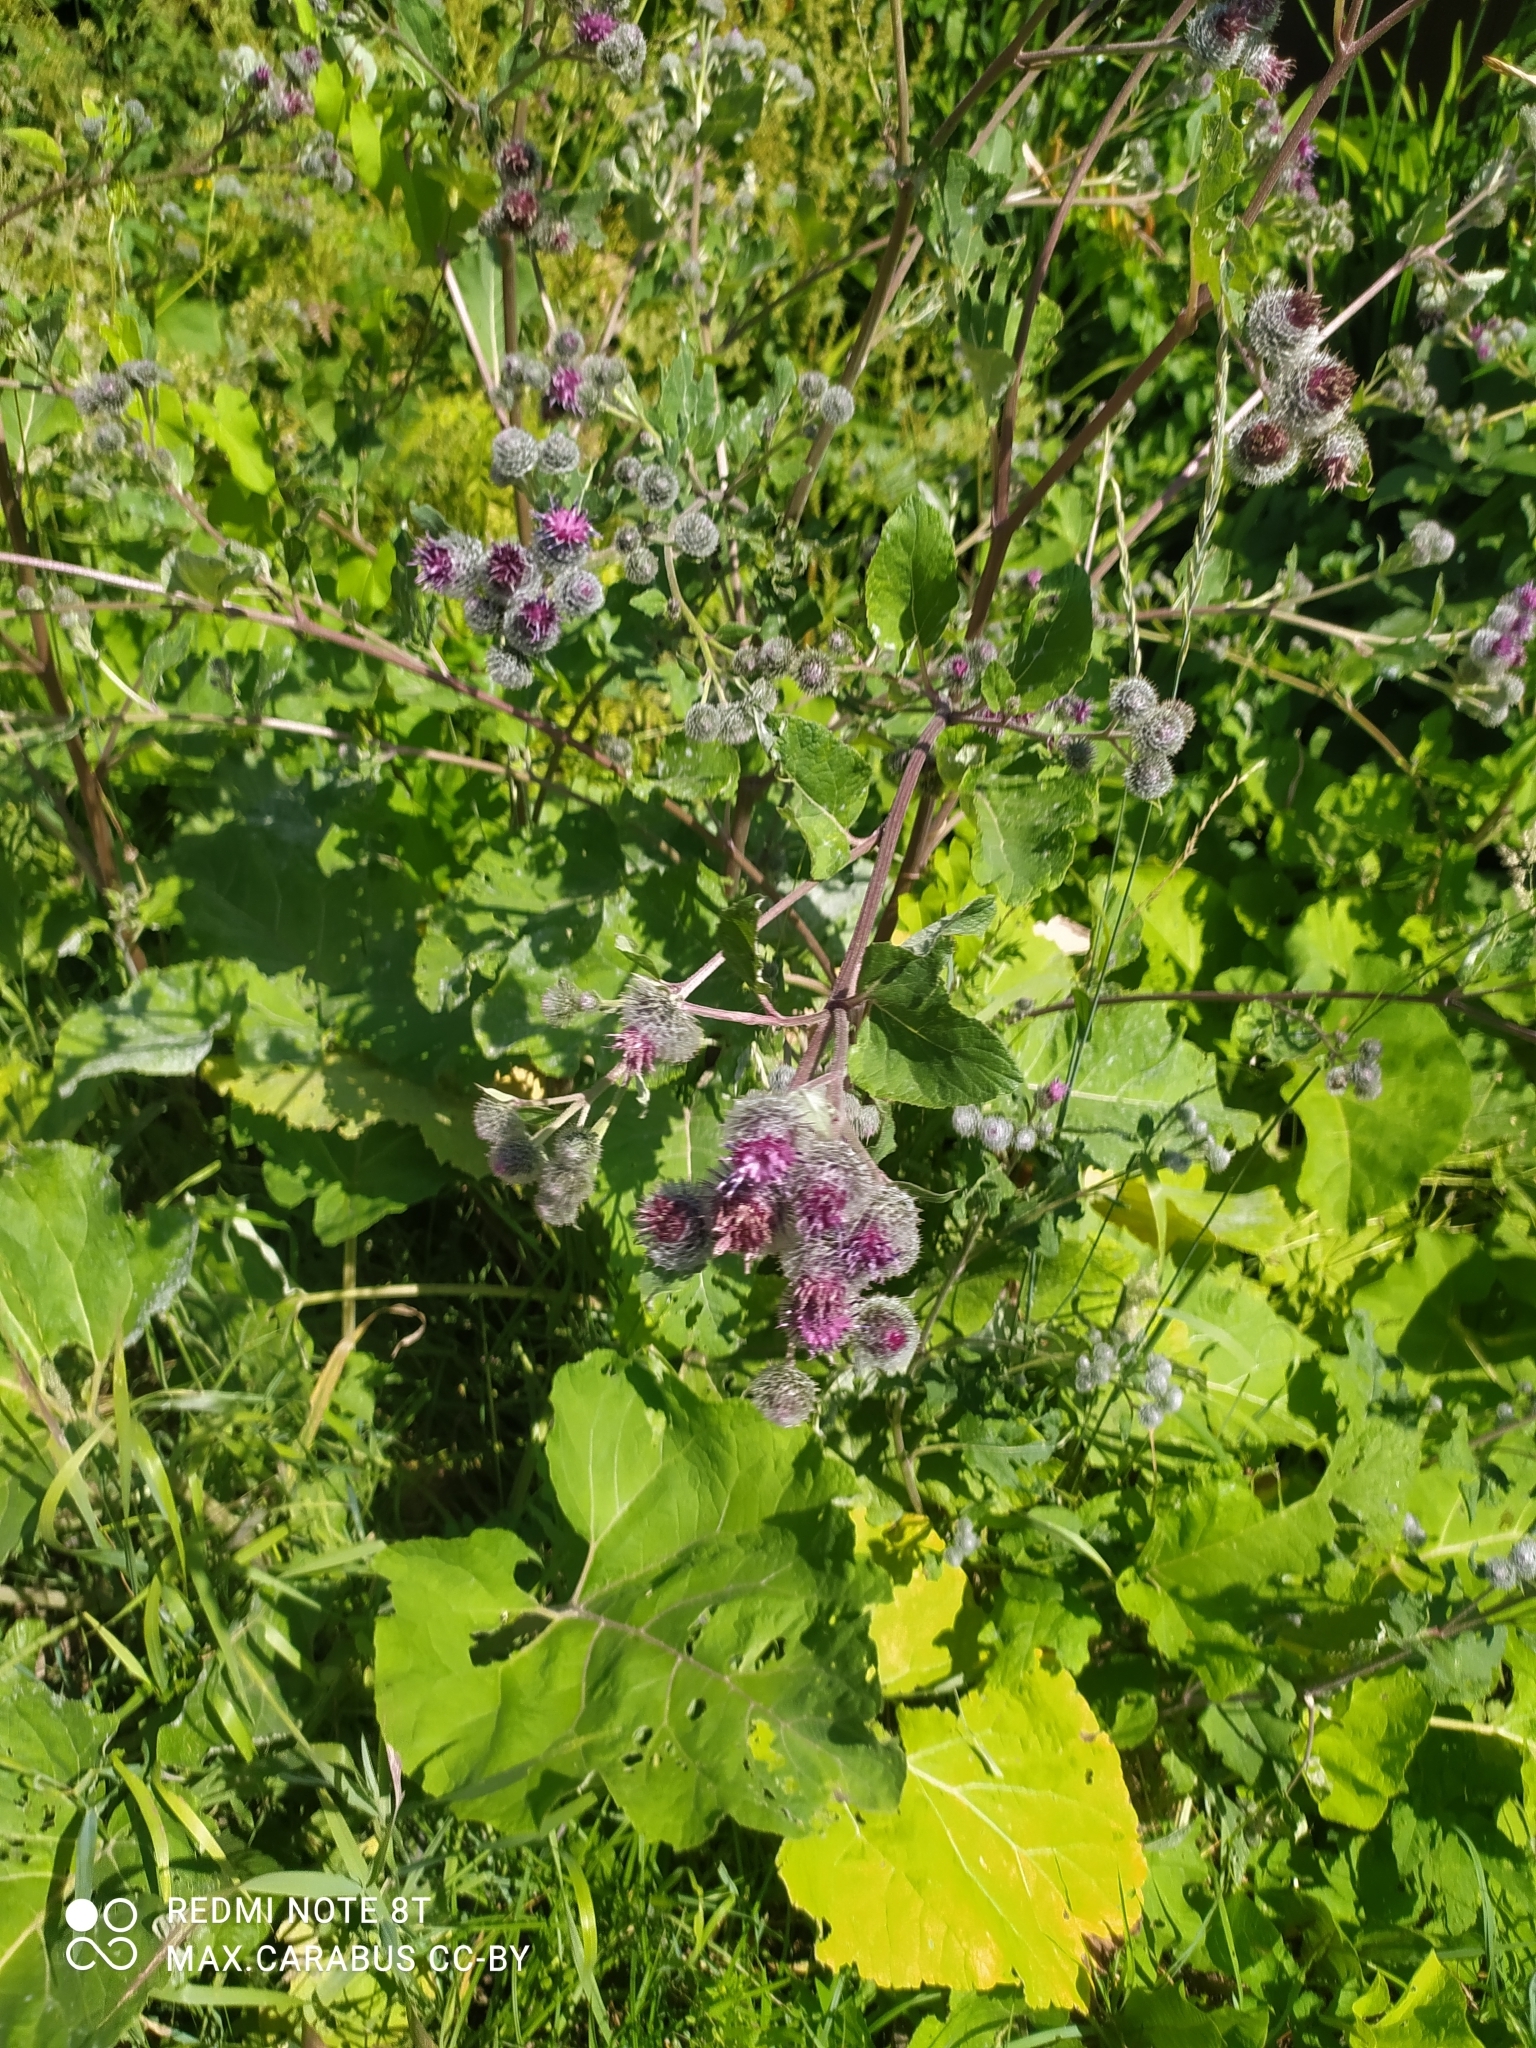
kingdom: Plantae
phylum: Tracheophyta
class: Magnoliopsida
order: Asterales
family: Asteraceae
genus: Arctium
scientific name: Arctium tomentosum
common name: Woolly burdock
